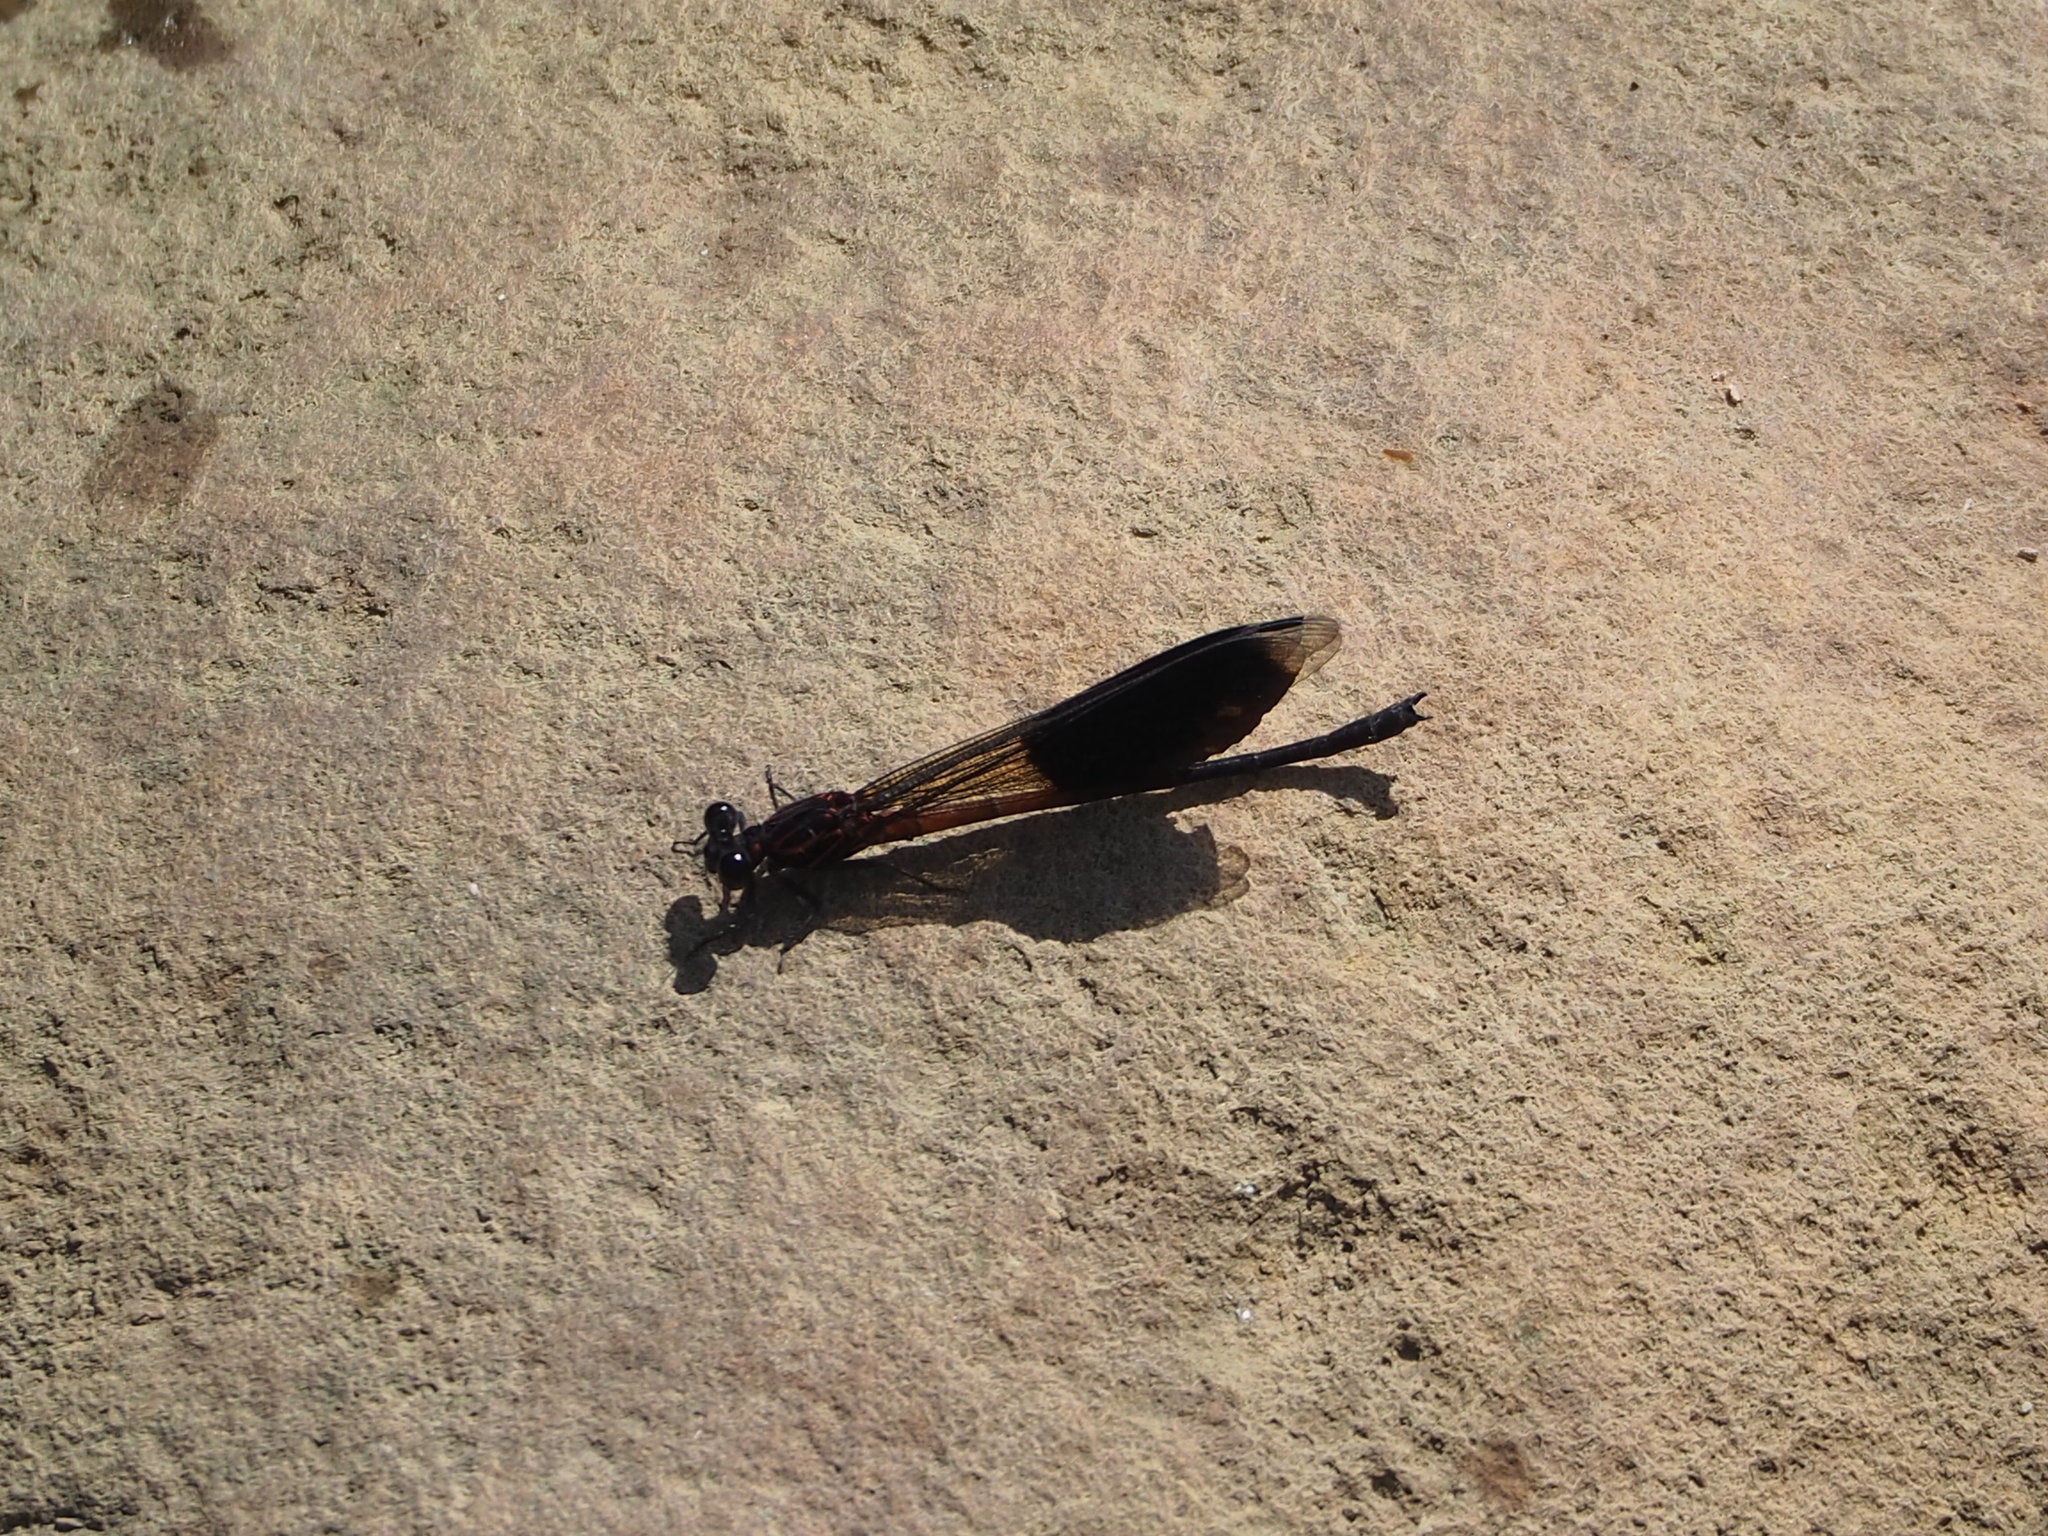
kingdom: Animalia
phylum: Arthropoda
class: Insecta
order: Odonata
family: Euphaeidae
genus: Euphaea
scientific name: Euphaea formosa
